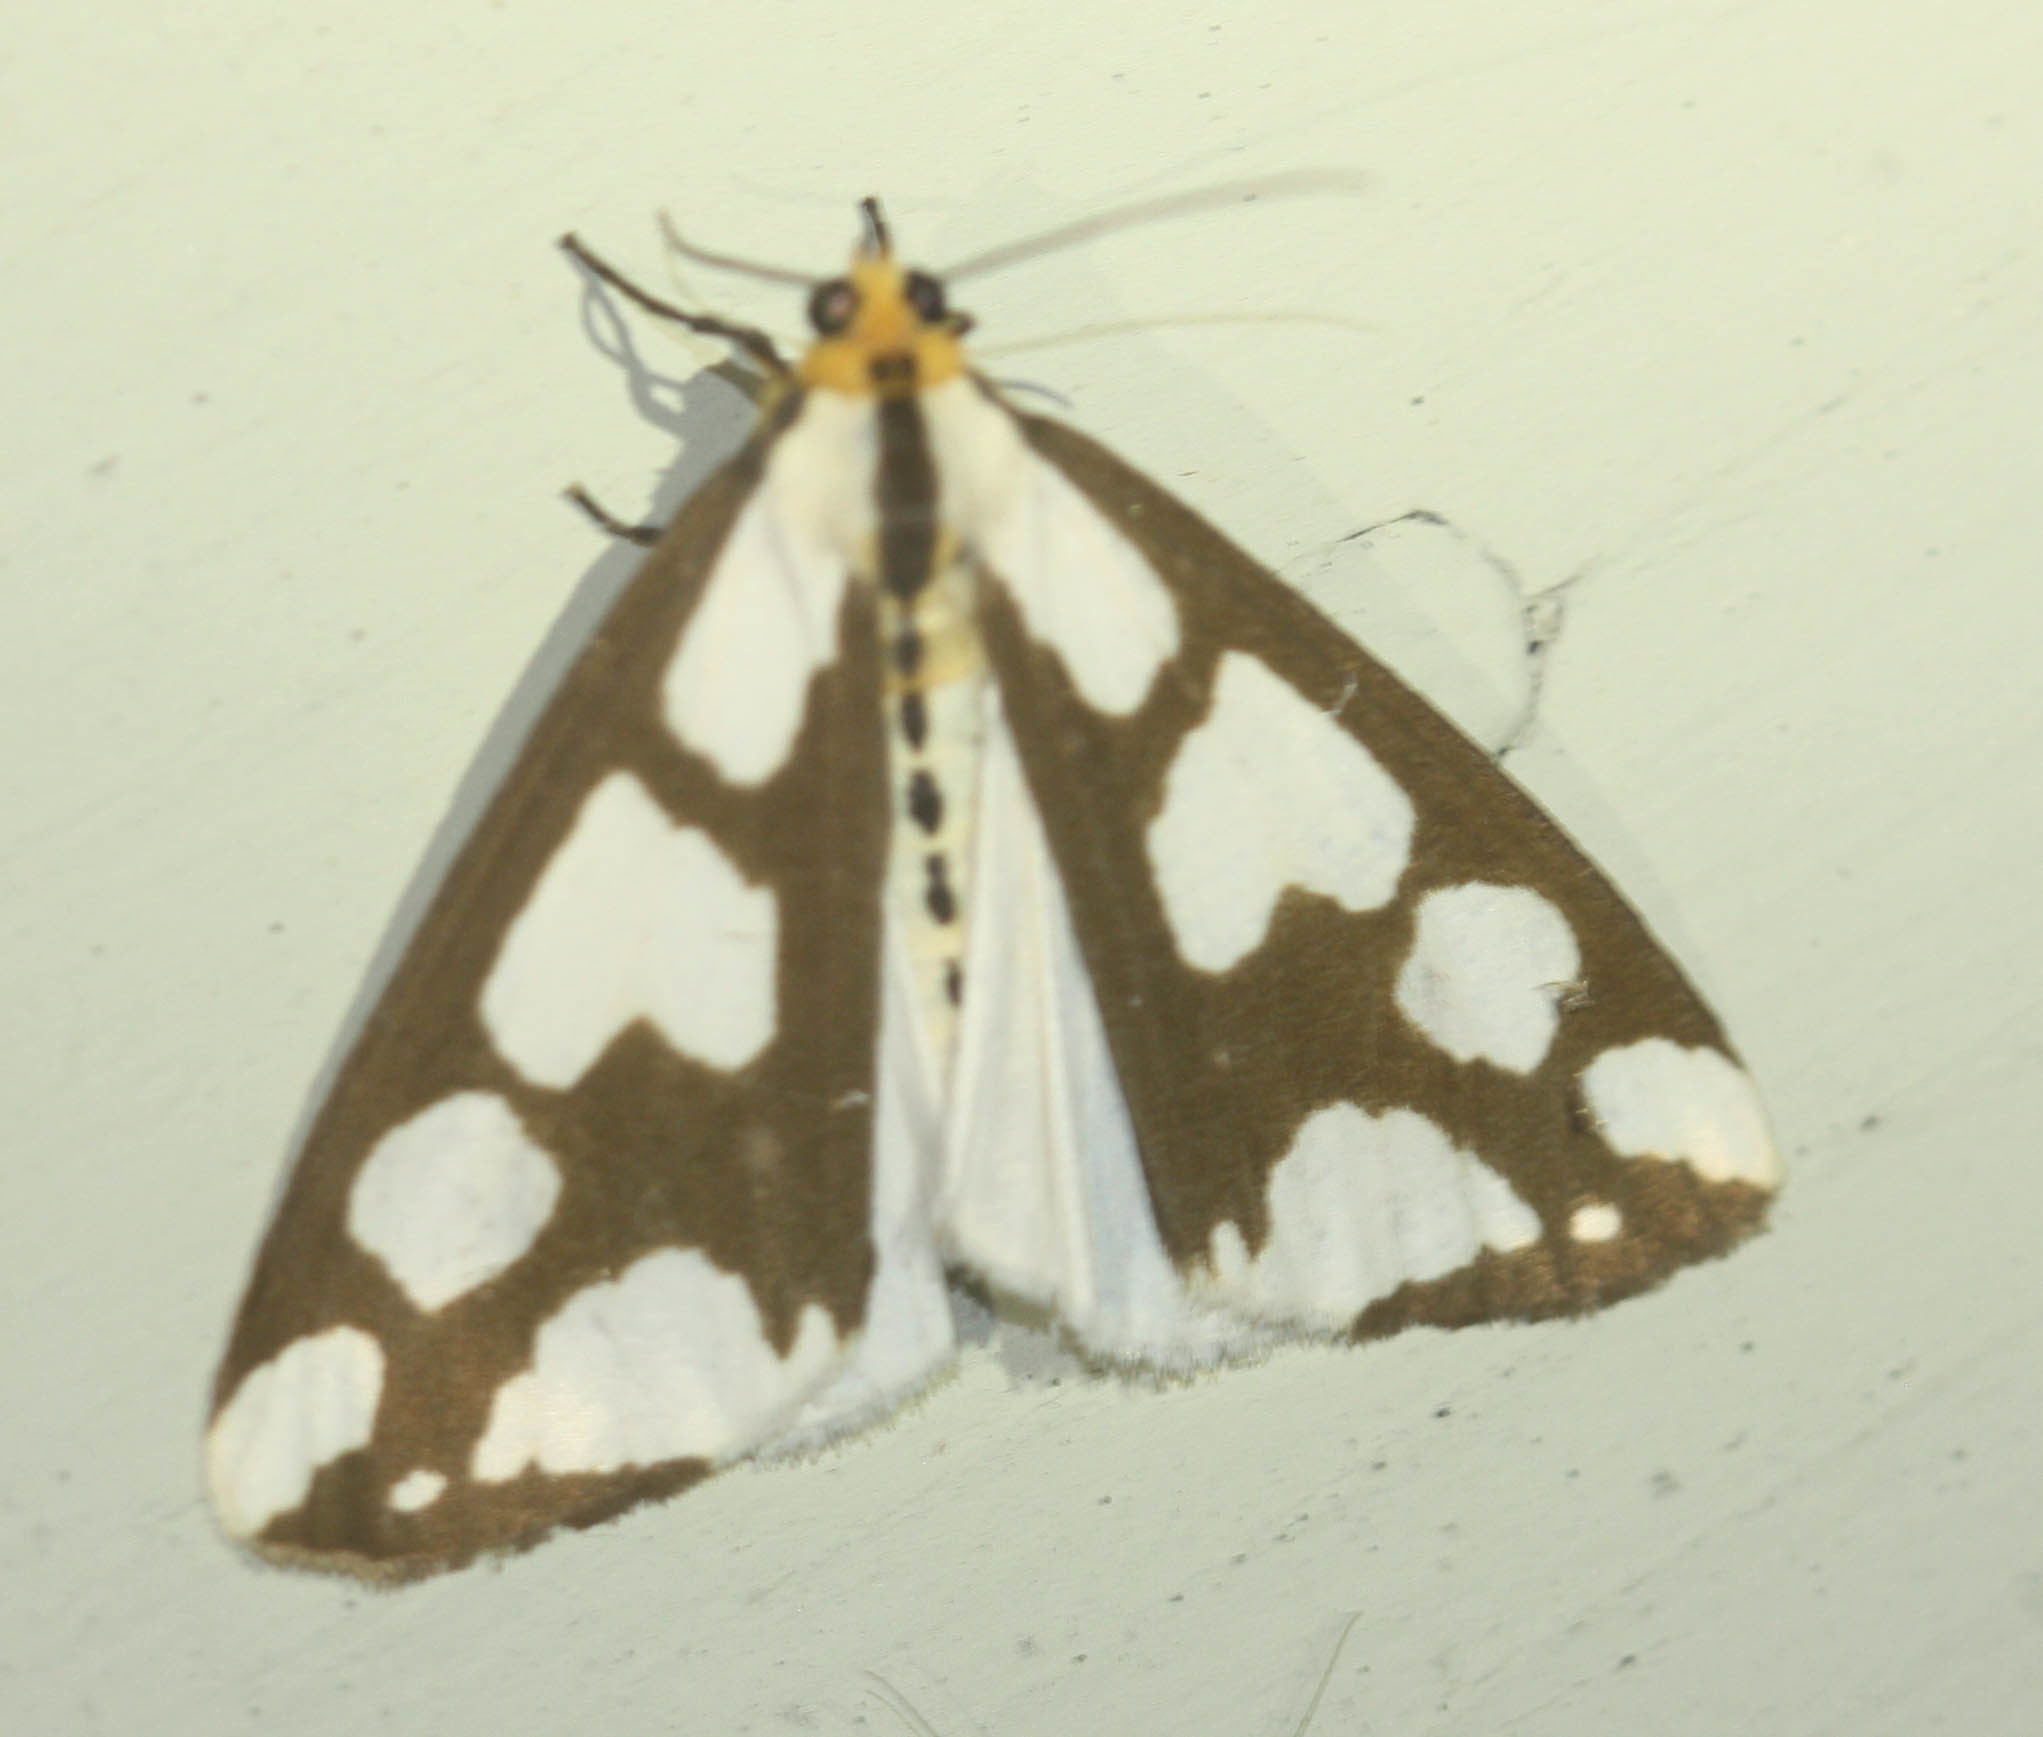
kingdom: Animalia
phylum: Arthropoda
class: Insecta
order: Lepidoptera
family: Erebidae
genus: Haploa
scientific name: Haploa confusa
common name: Confused haploa moth
